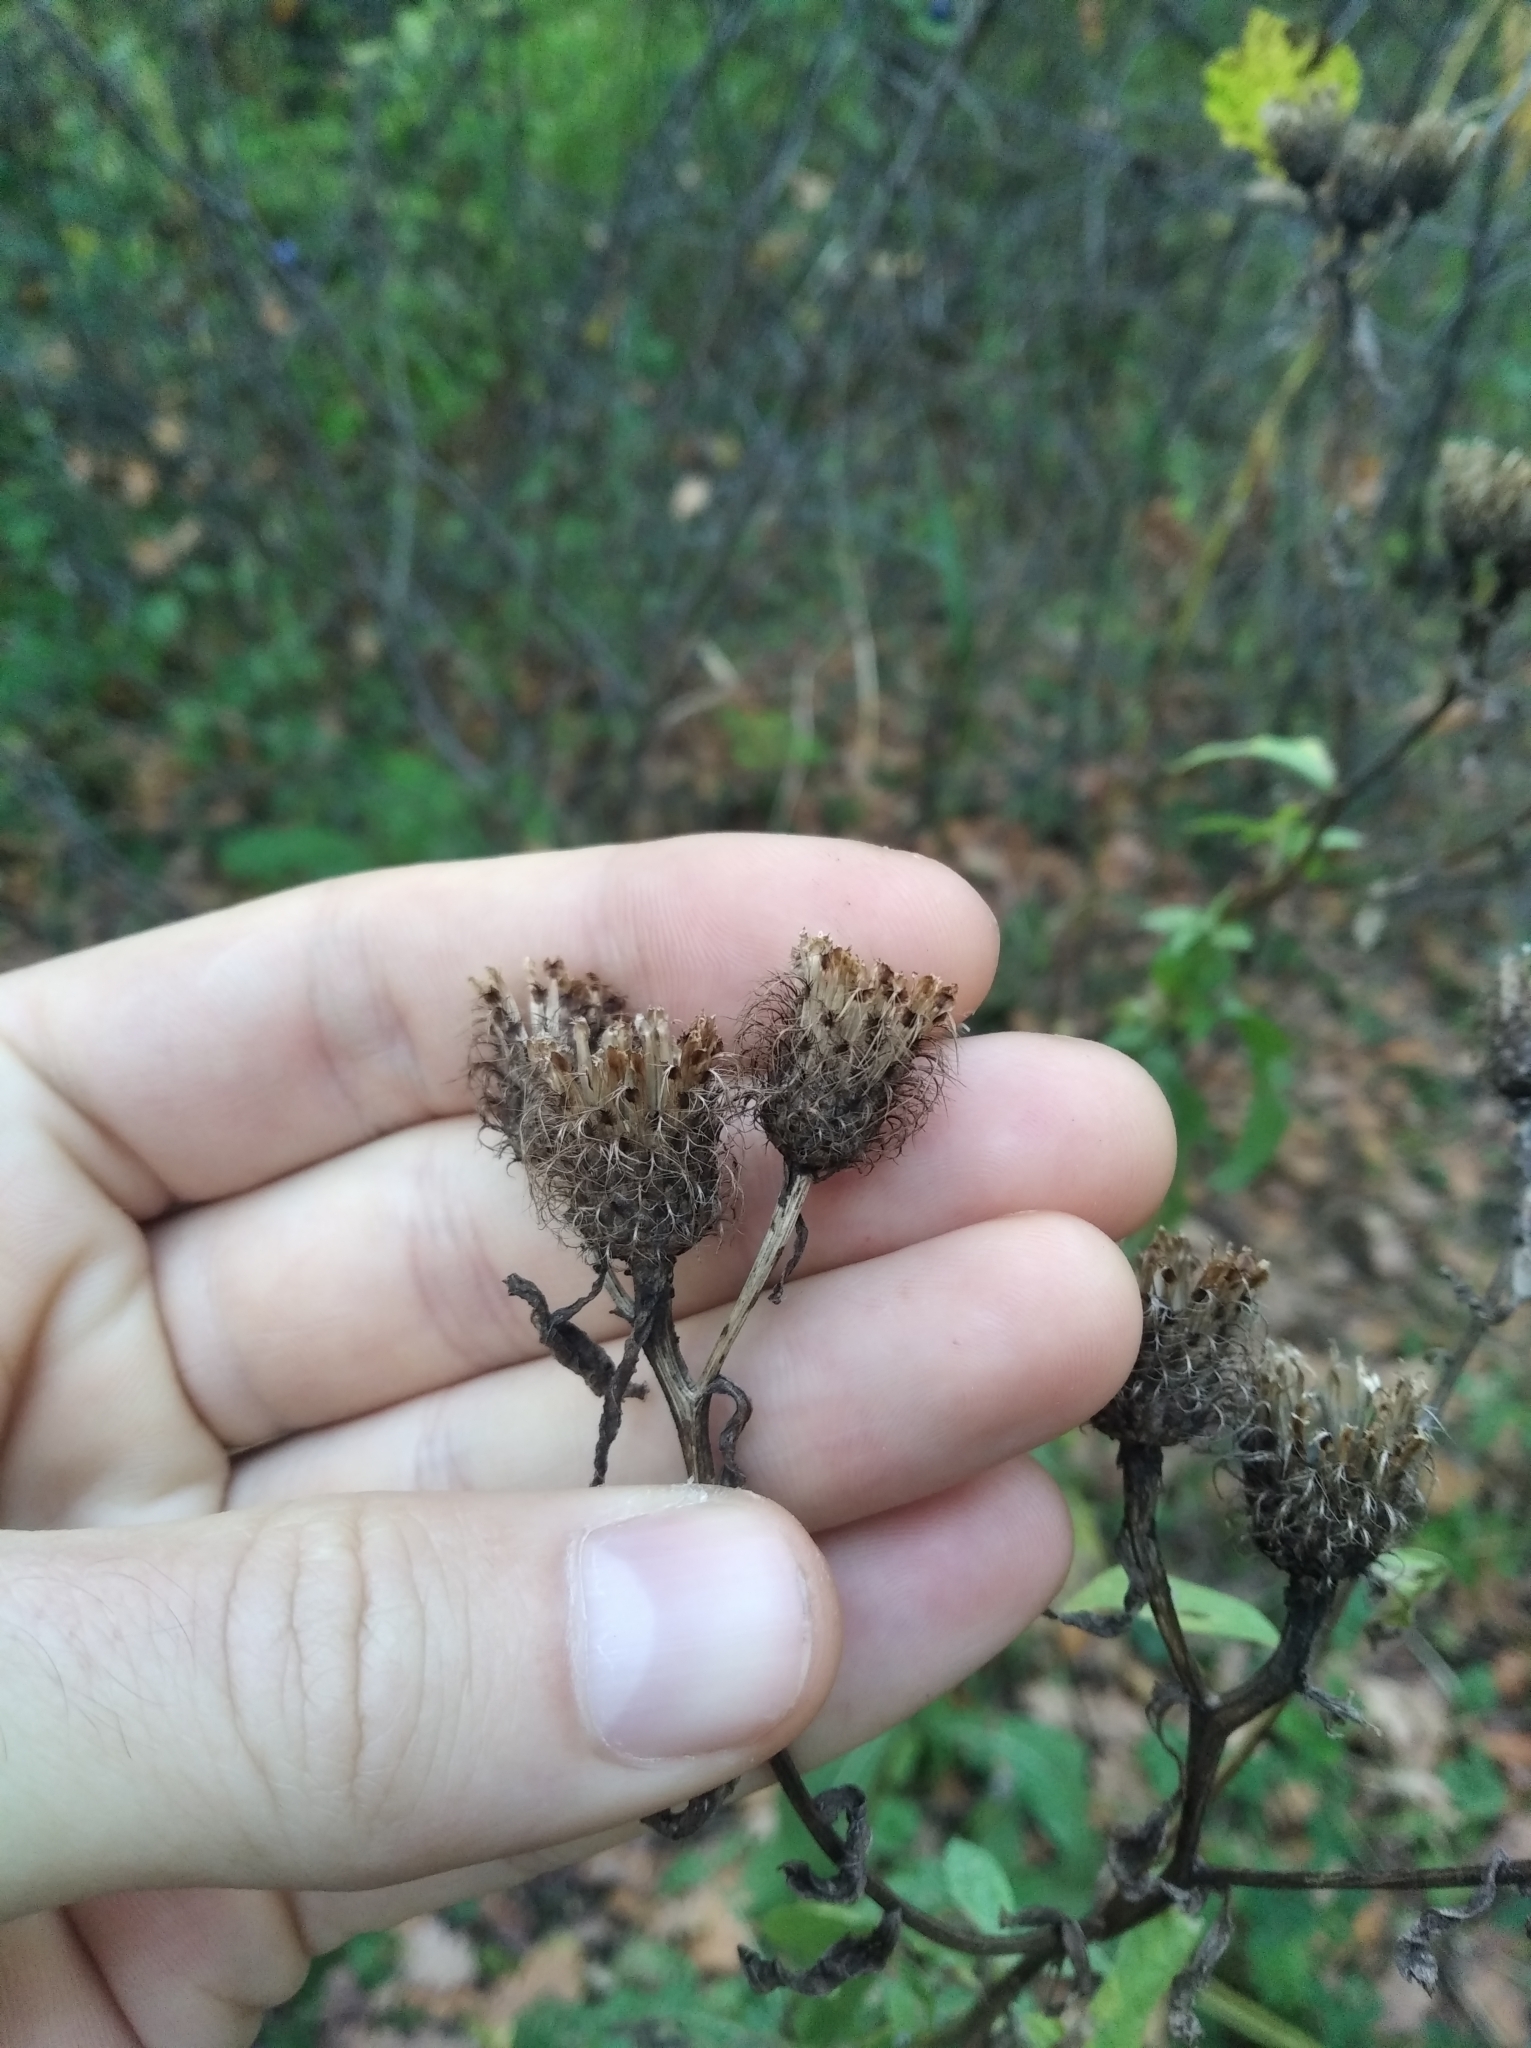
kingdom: Plantae
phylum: Tracheophyta
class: Magnoliopsida
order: Asterales
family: Asteraceae
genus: Centaurea
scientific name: Centaurea pseudophrygia
